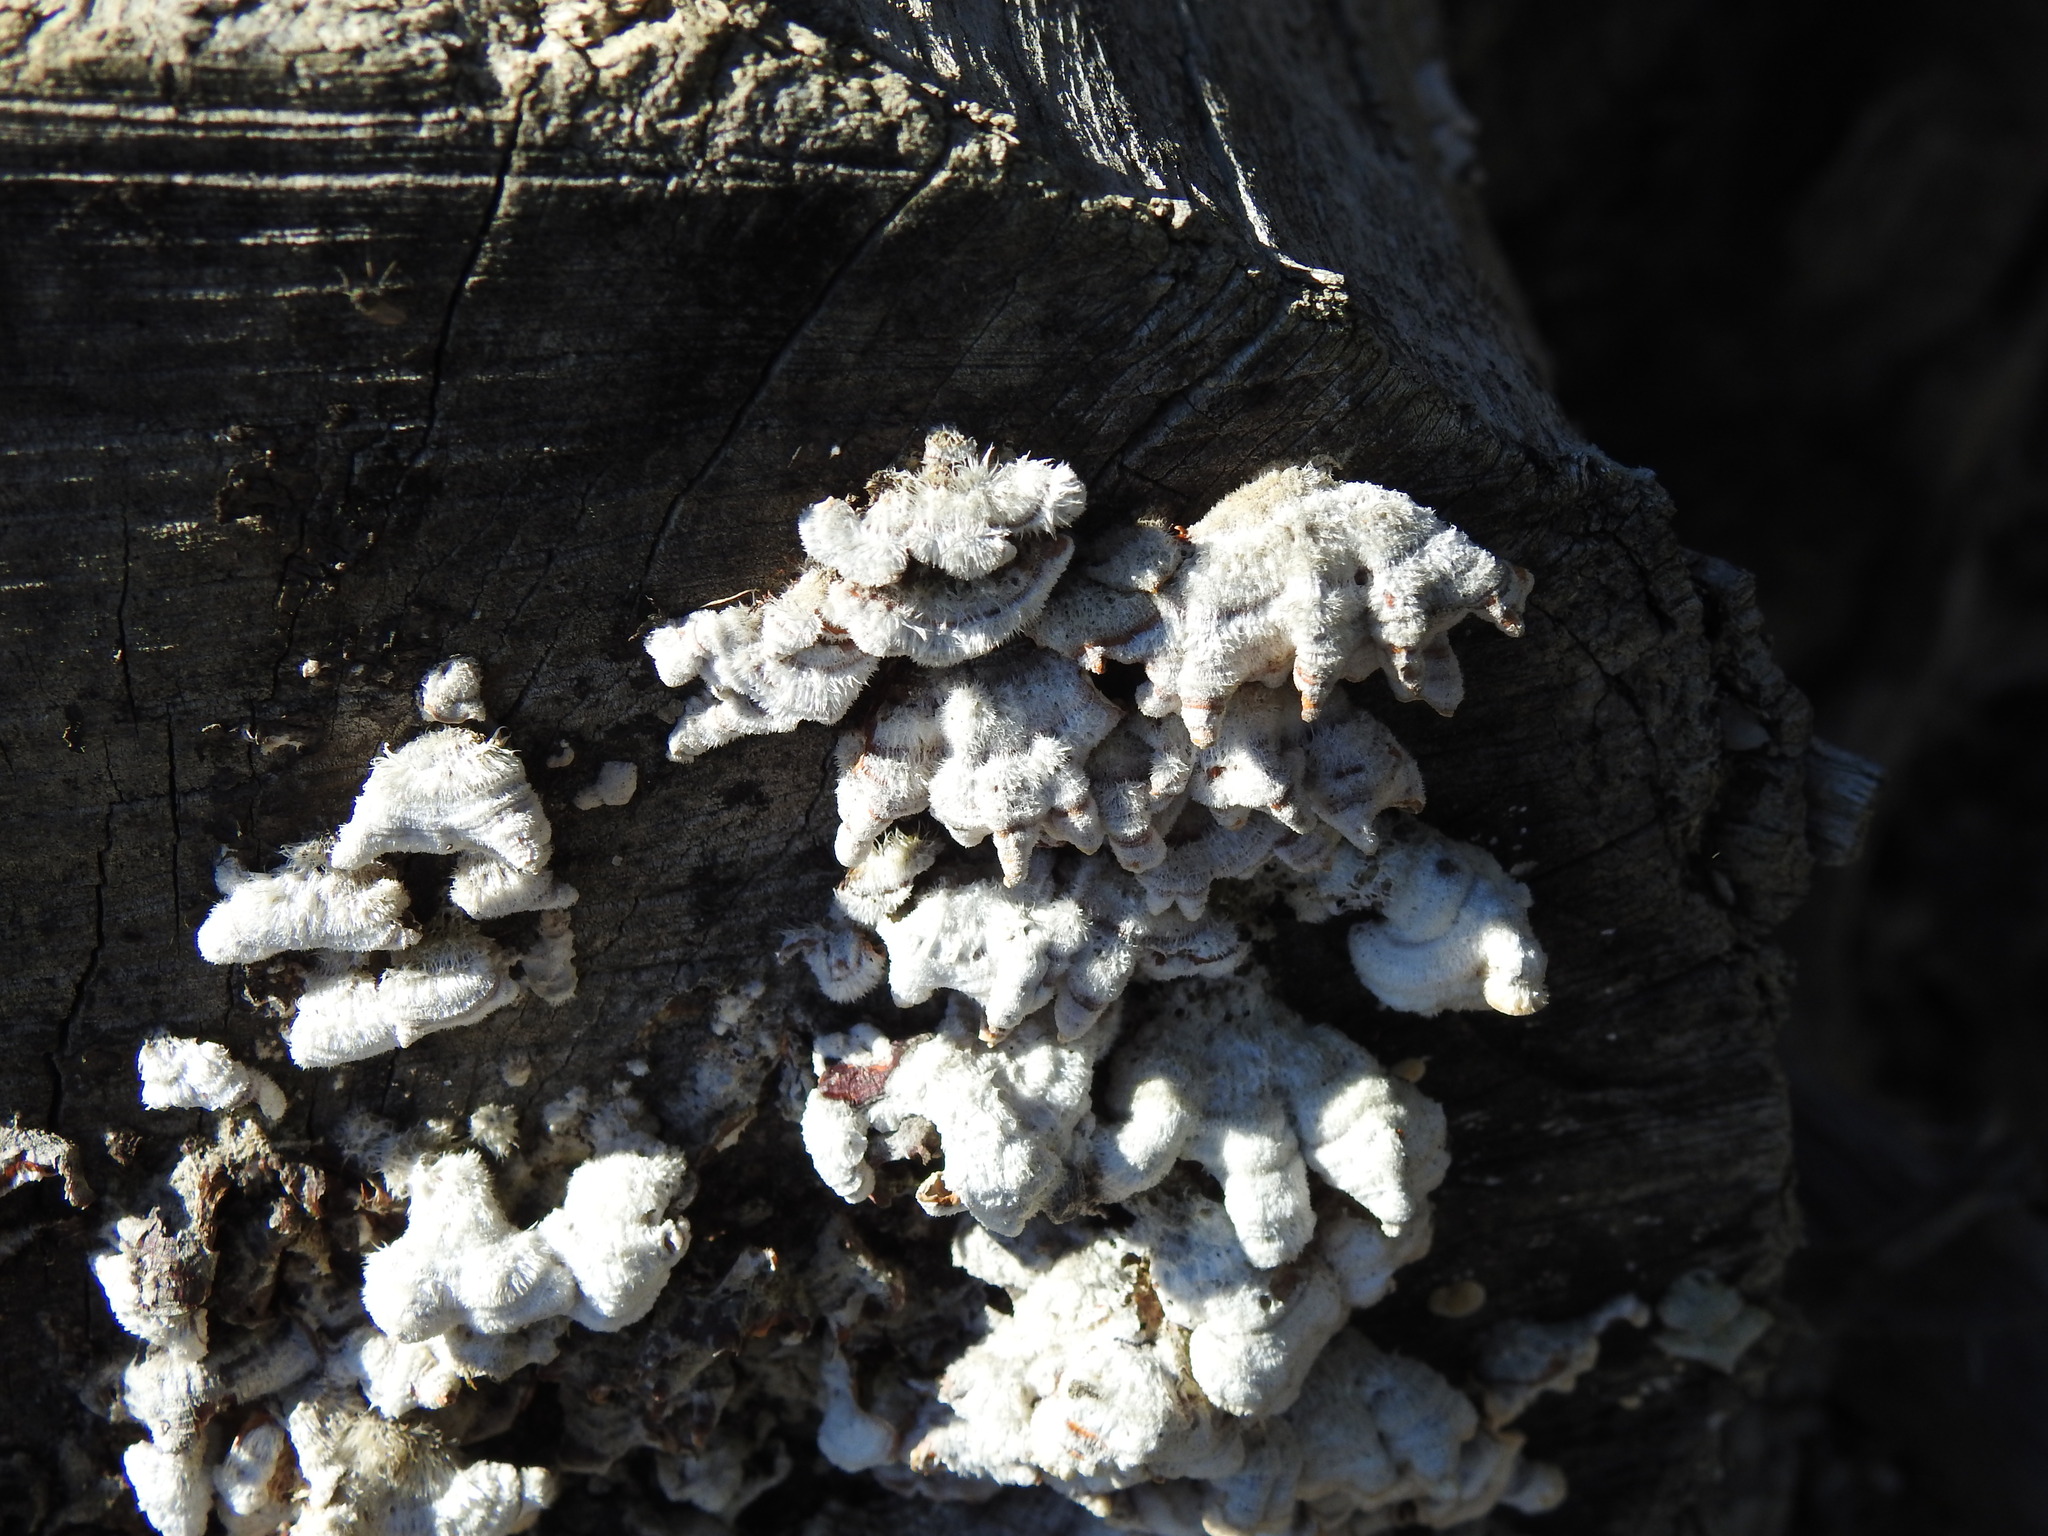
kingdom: Fungi
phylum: Basidiomycota
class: Agaricomycetes
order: Agaricales
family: Schizophyllaceae
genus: Schizophyllum
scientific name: Schizophyllum commune
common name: Common porecrust
